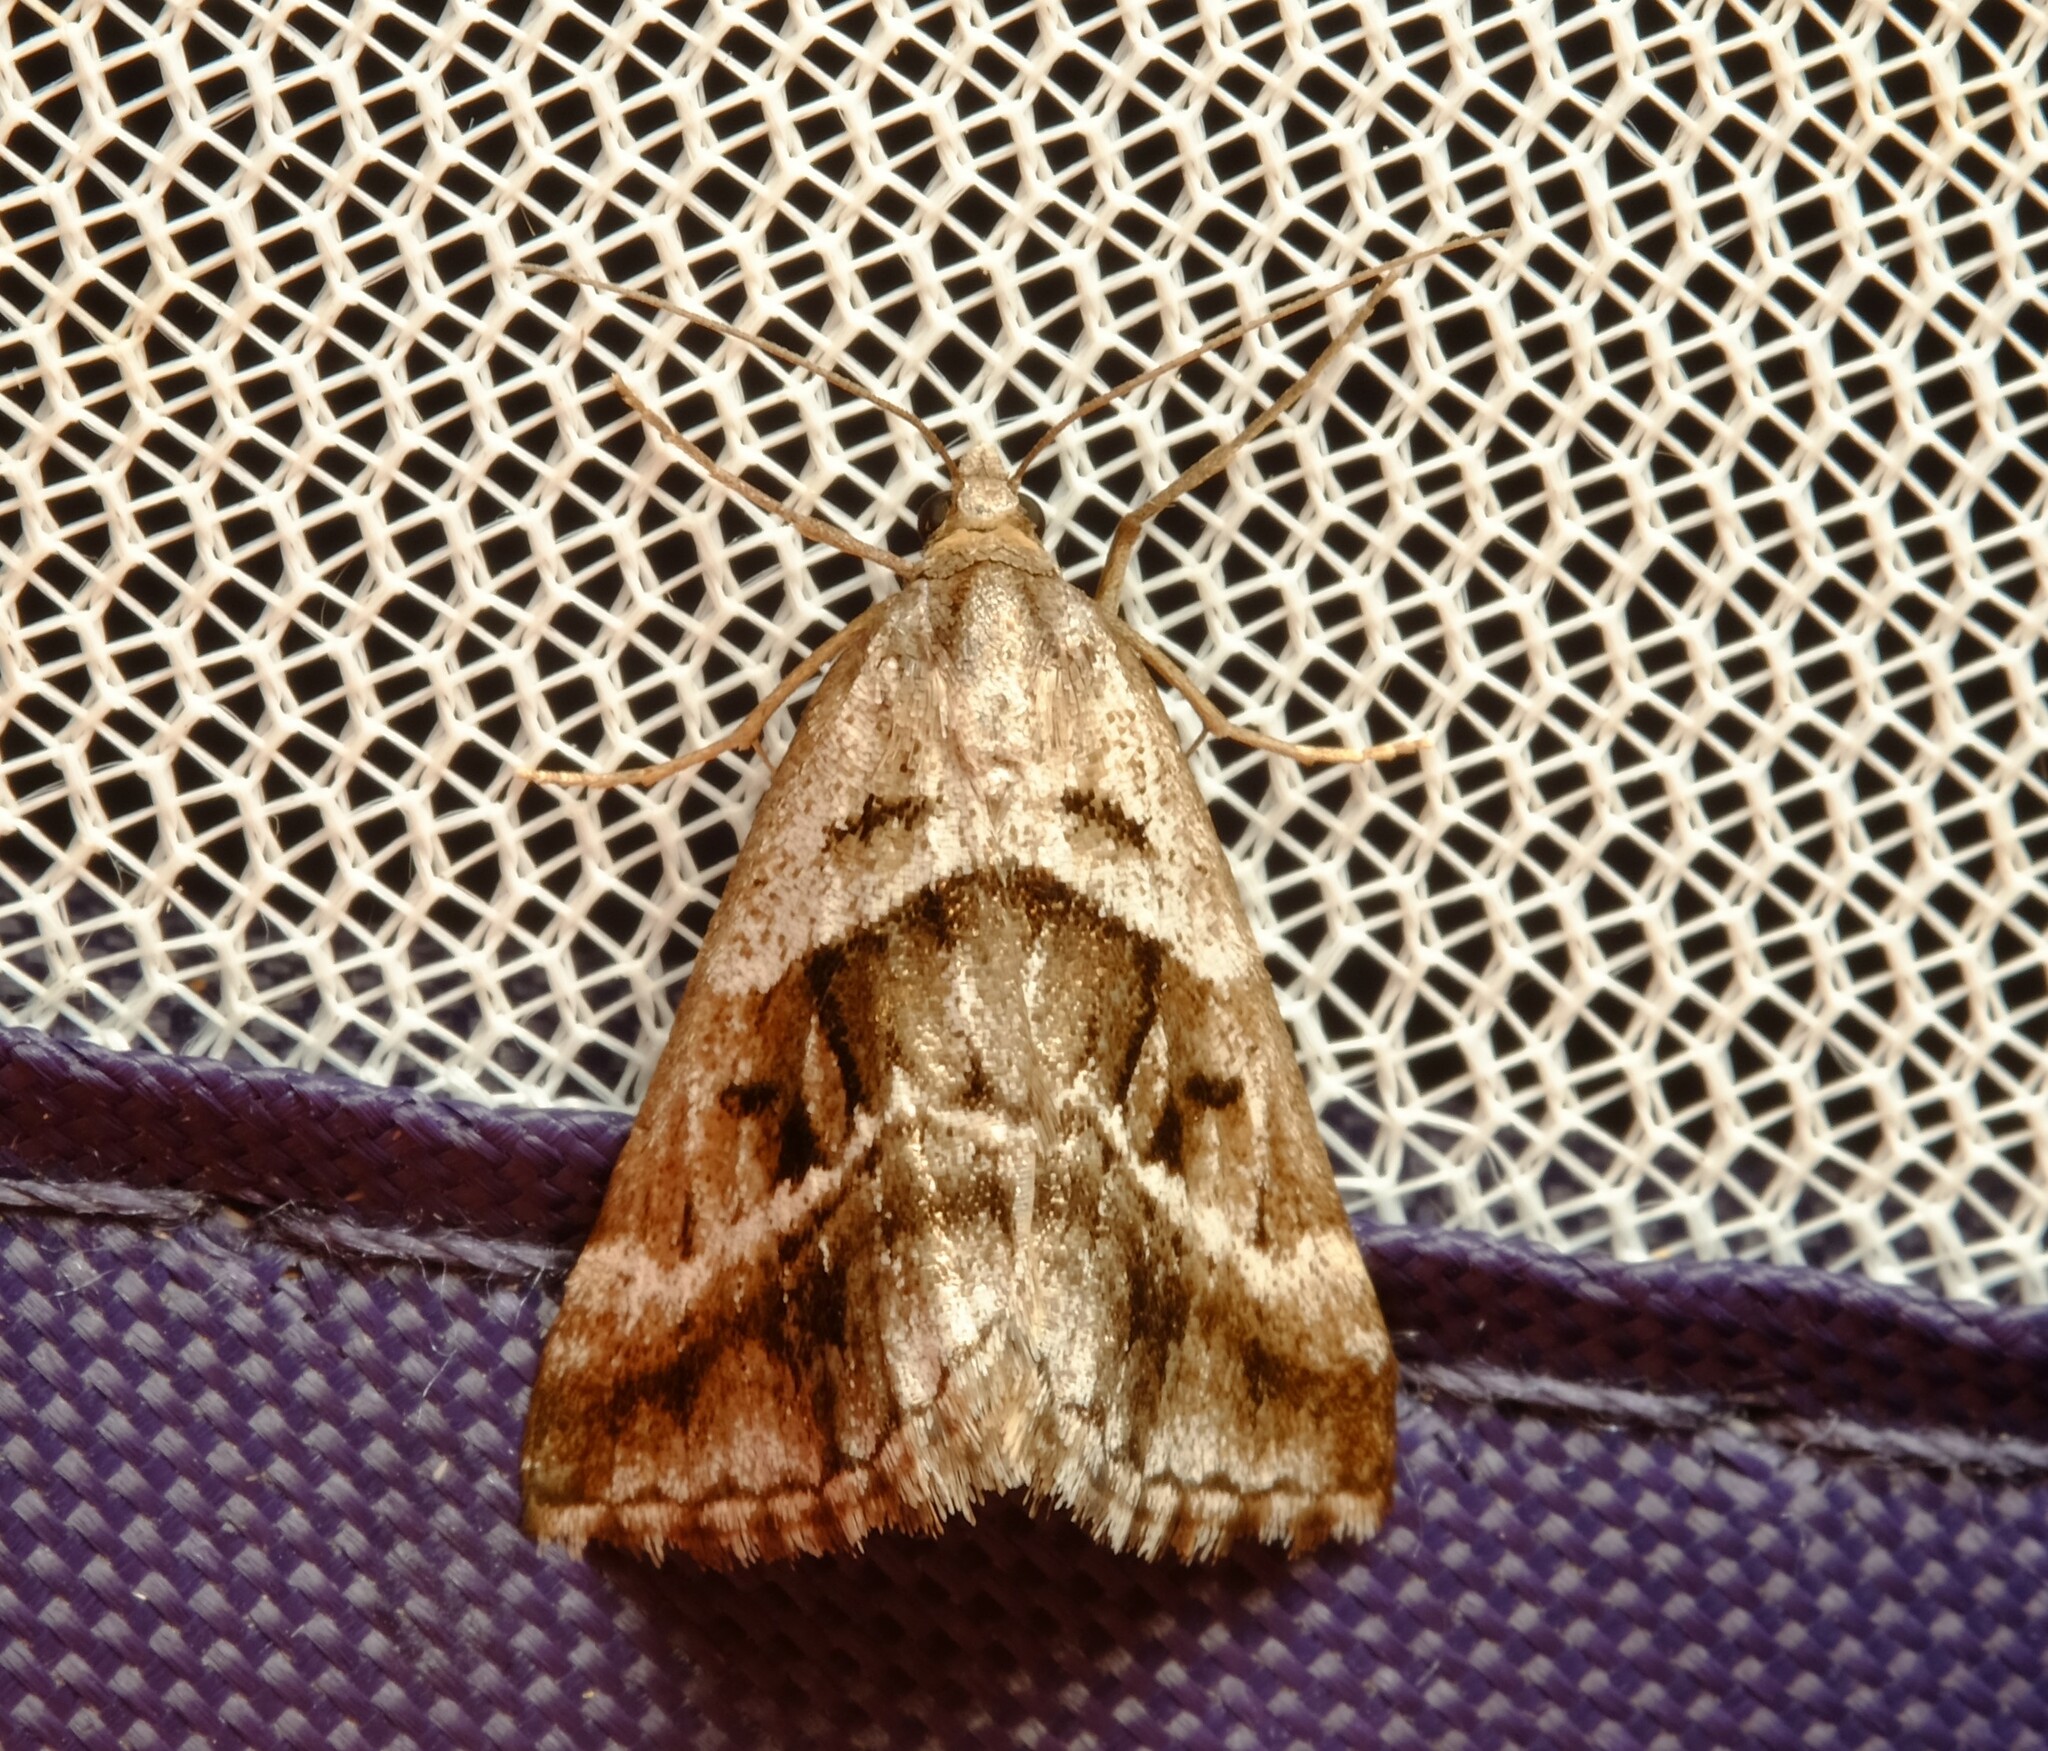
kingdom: Animalia
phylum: Arthropoda
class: Insecta
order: Lepidoptera
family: Geometridae
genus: Dichromodes
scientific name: Dichromodes stilbiata
